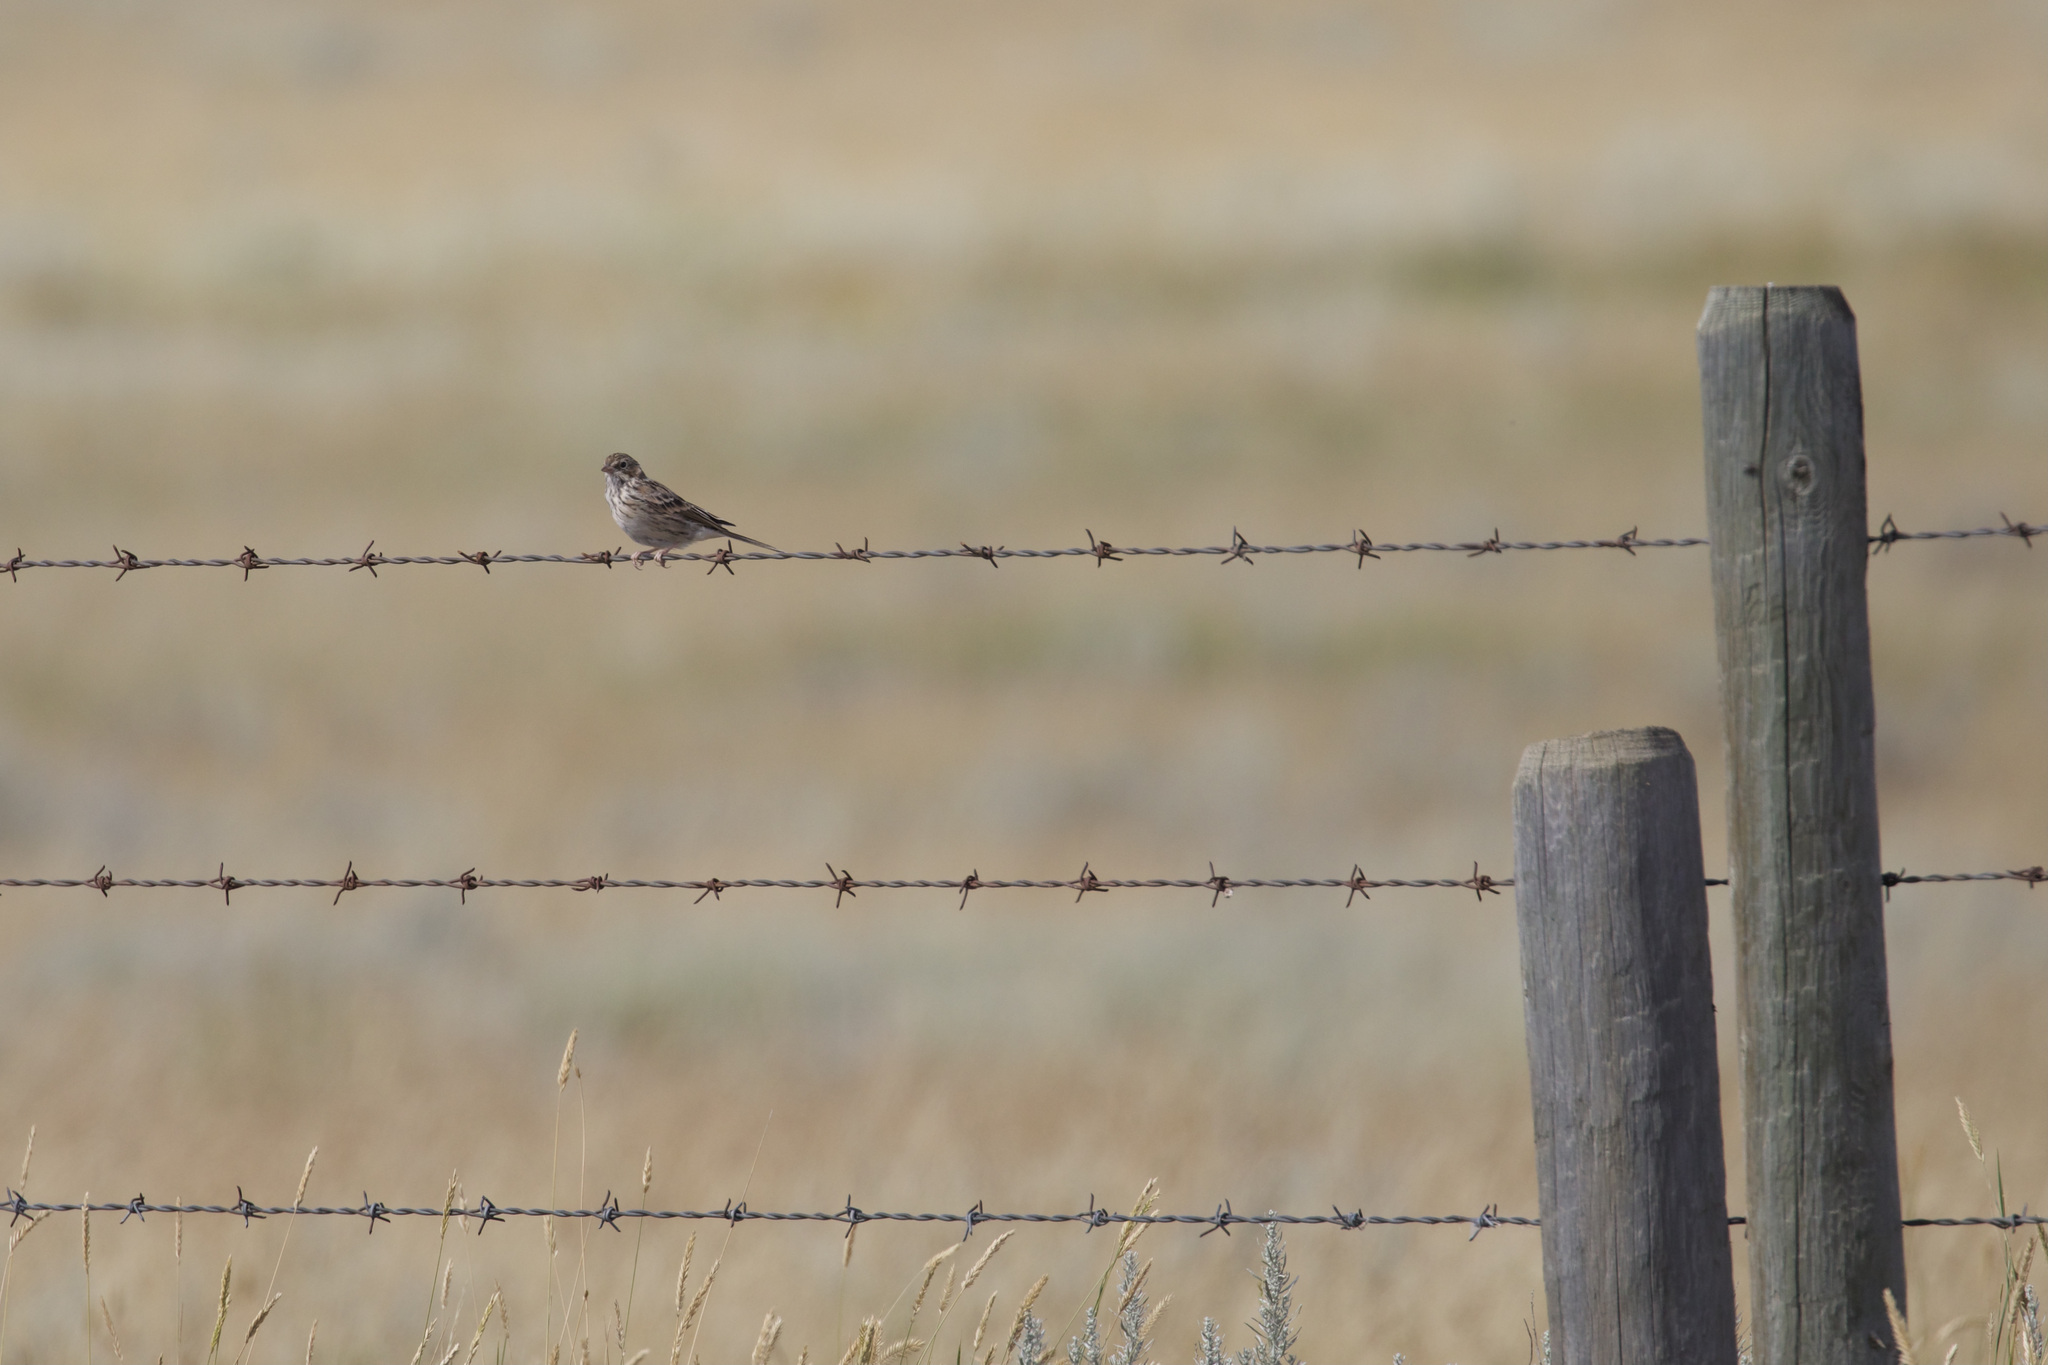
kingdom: Animalia
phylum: Chordata
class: Aves
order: Passeriformes
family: Passerellidae
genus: Pooecetes
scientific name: Pooecetes gramineus
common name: Vesper sparrow
